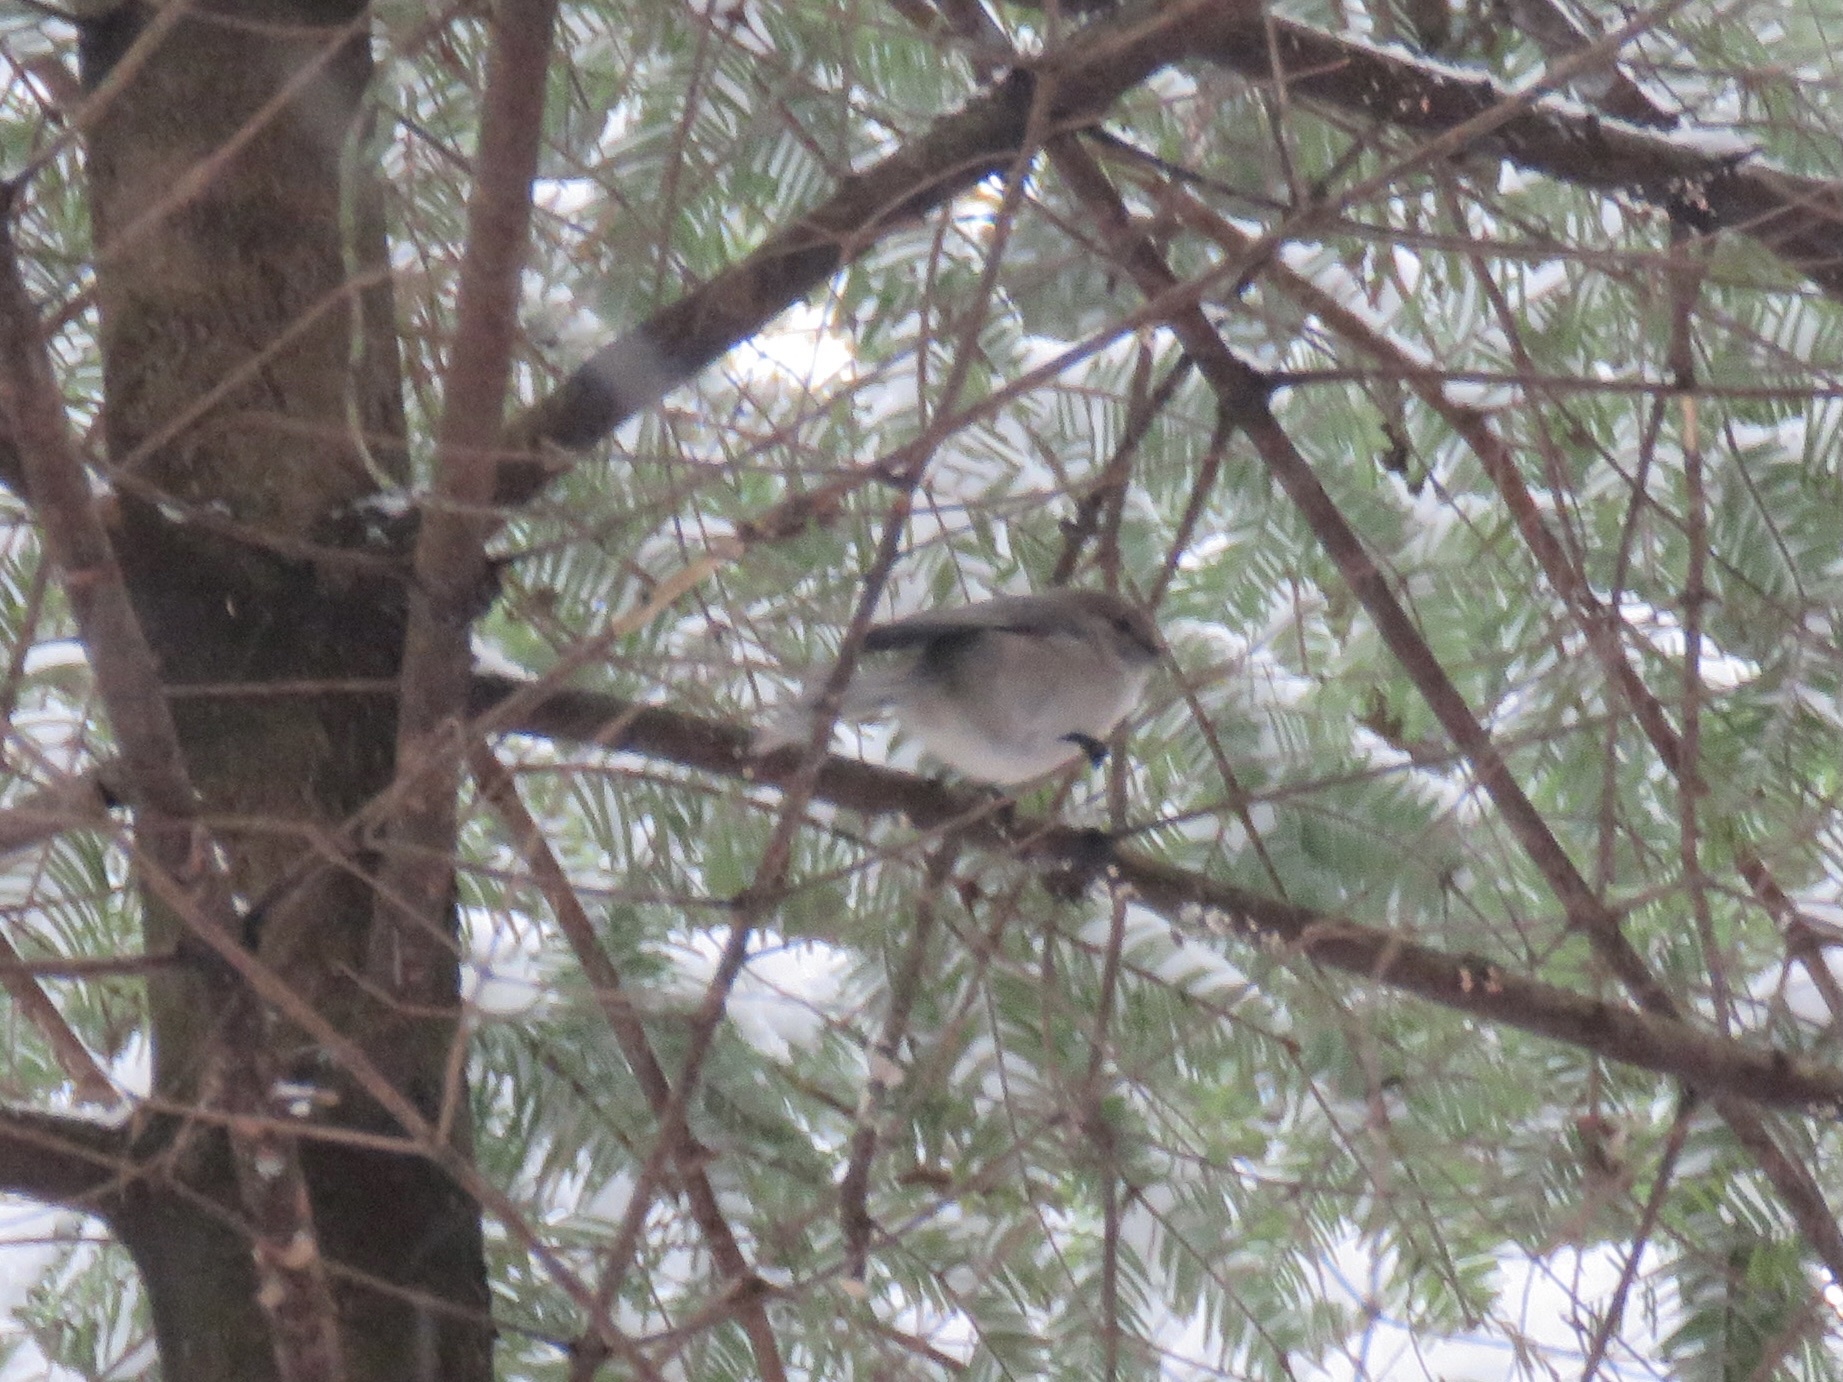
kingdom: Animalia
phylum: Chordata
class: Aves
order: Passeriformes
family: Aegithalidae
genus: Psaltriparus
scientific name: Psaltriparus minimus
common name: American bushtit
